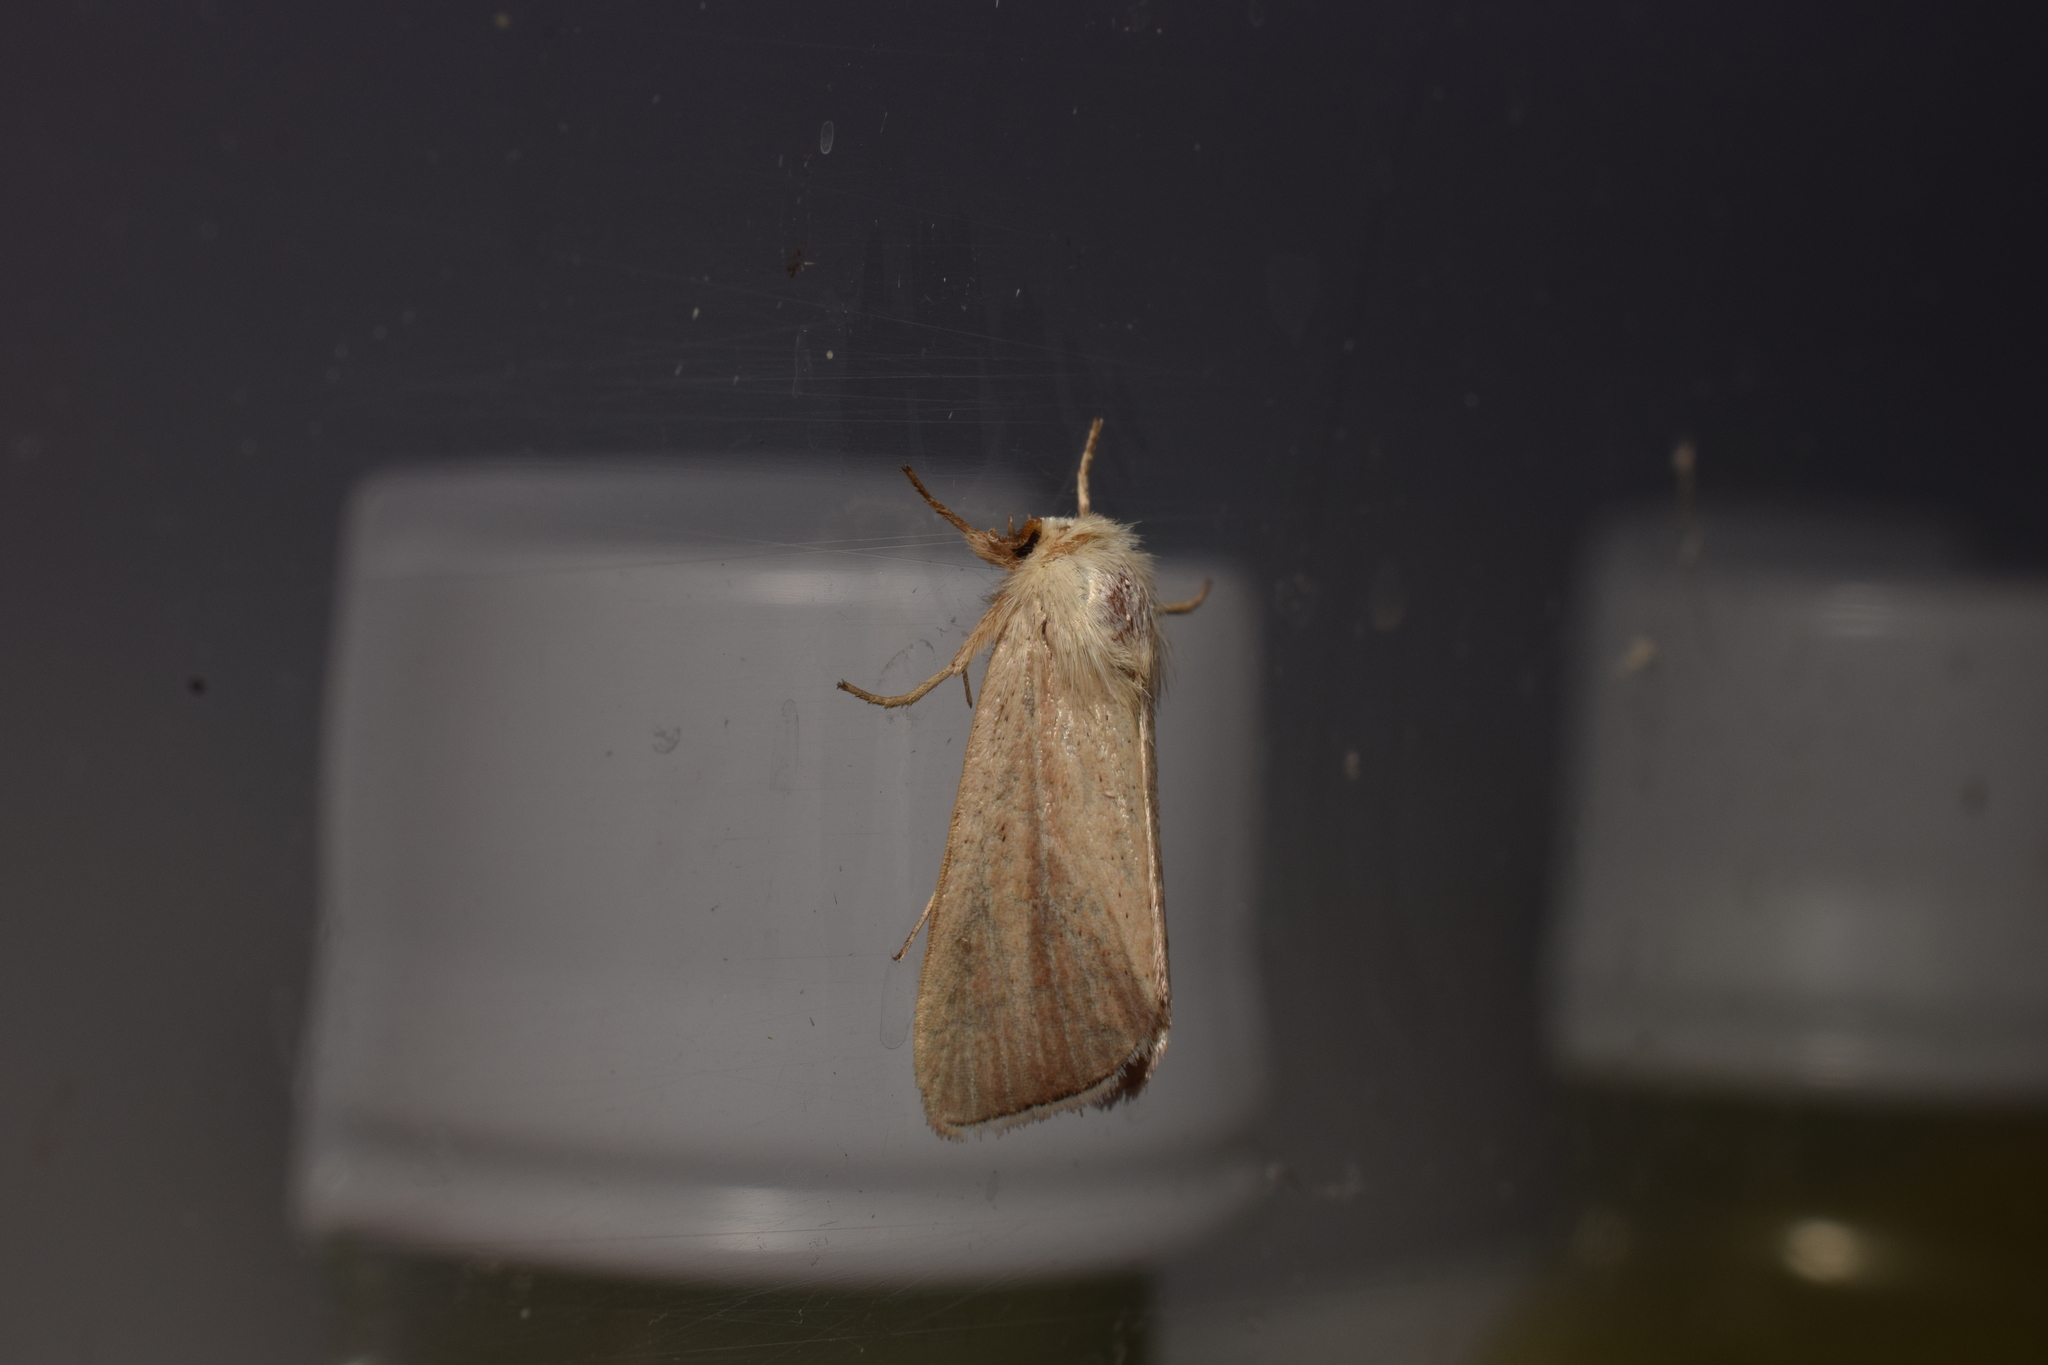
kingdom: Animalia
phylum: Arthropoda
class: Insecta
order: Lepidoptera
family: Noctuidae
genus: Sesamia
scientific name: Sesamia inferens
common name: Noctuid moth
